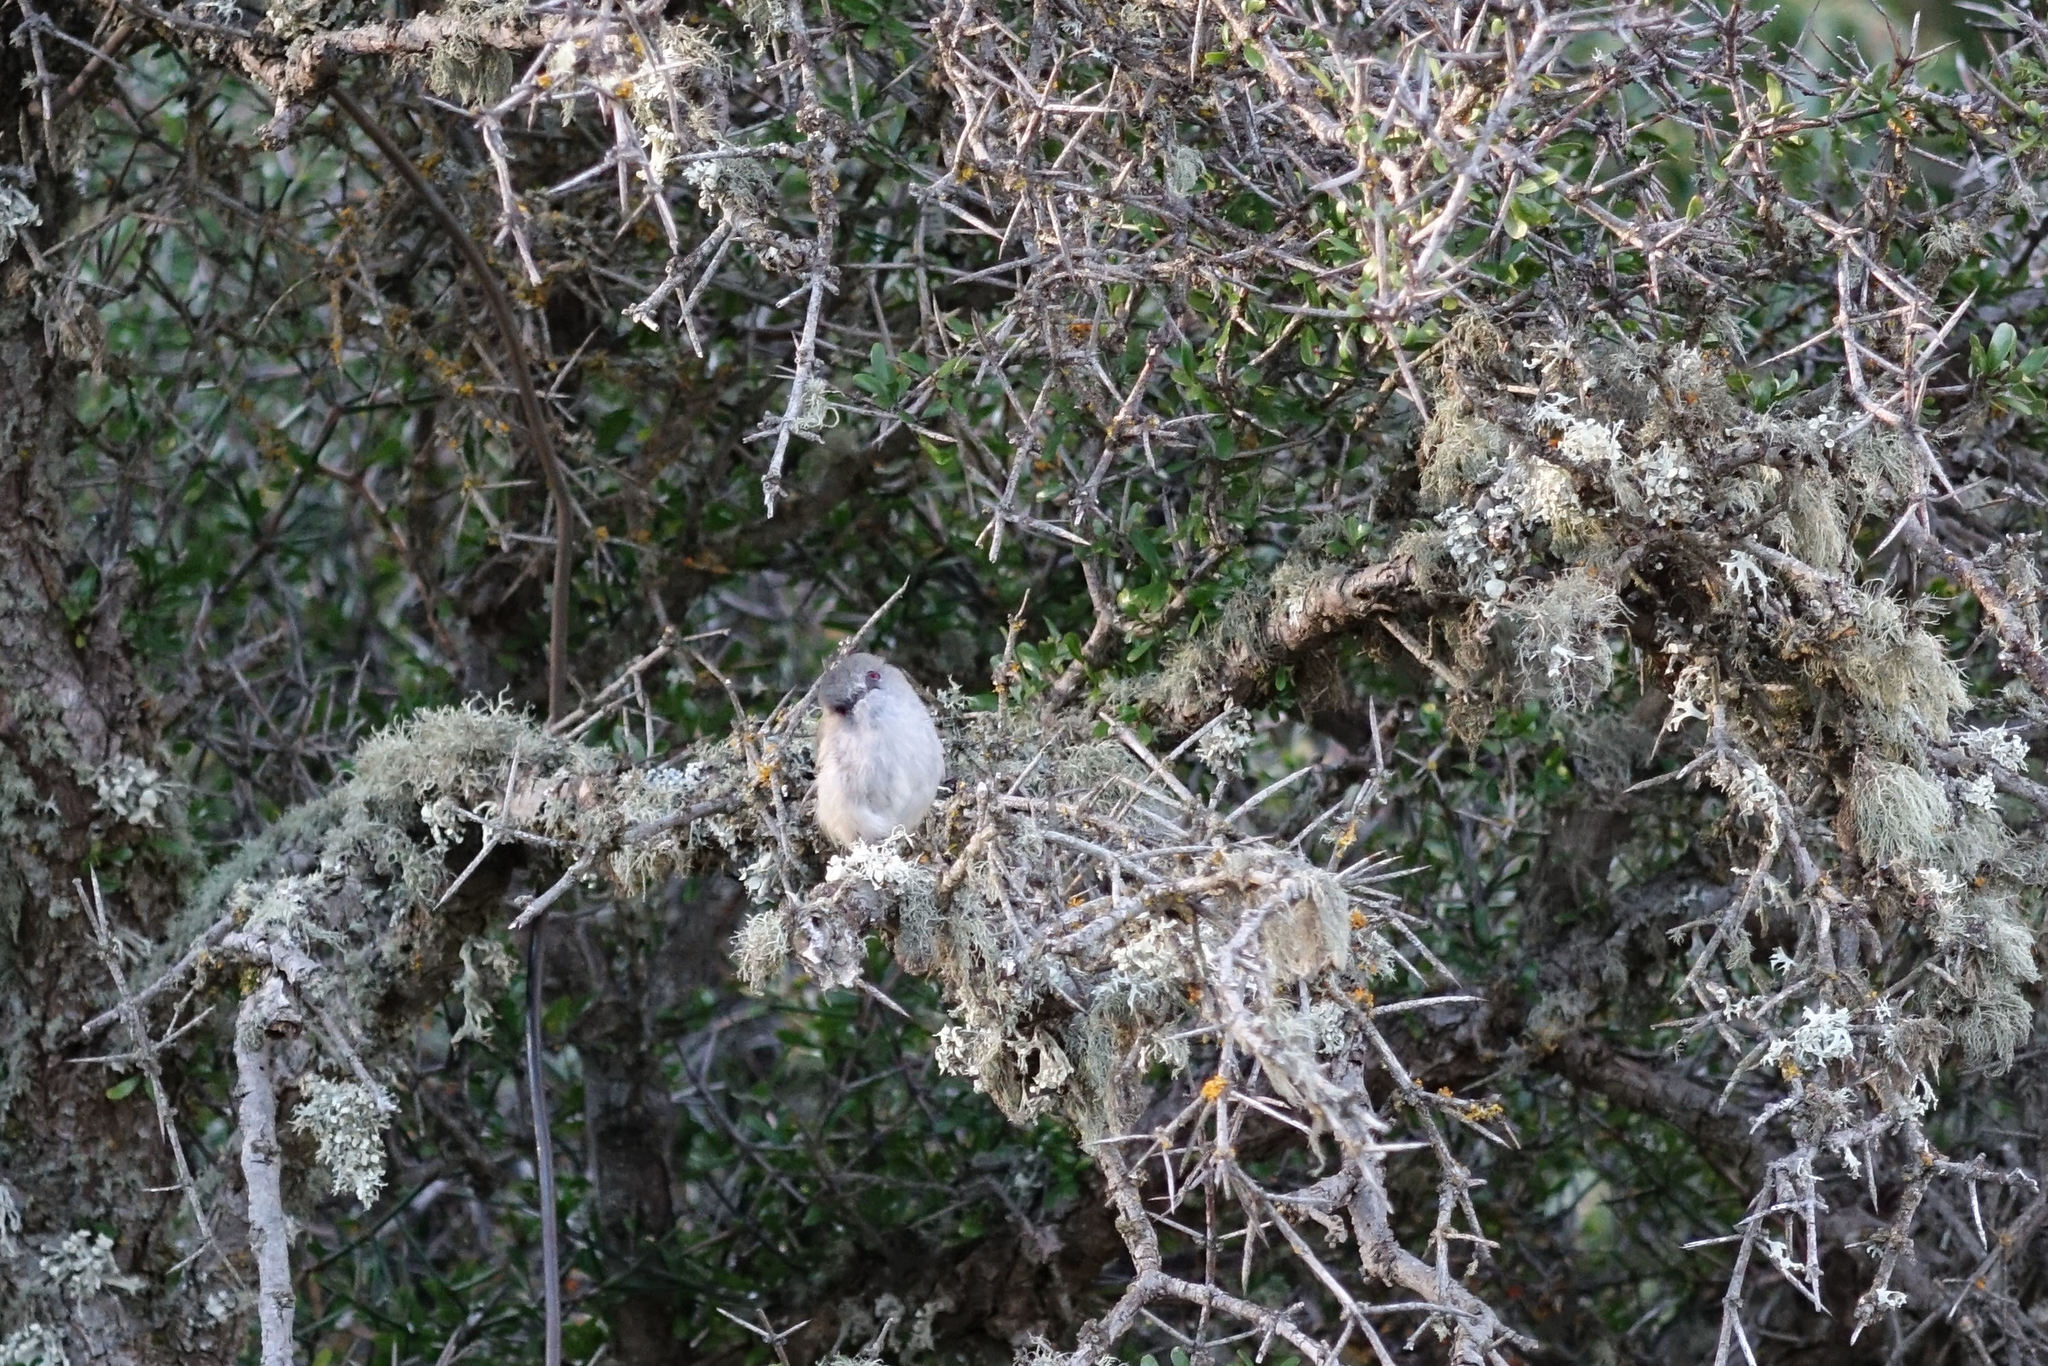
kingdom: Animalia
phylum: Chordata
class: Aves
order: Passeriformes
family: Acanthizidae
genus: Gerygone
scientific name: Gerygone igata
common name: Grey gerygone
